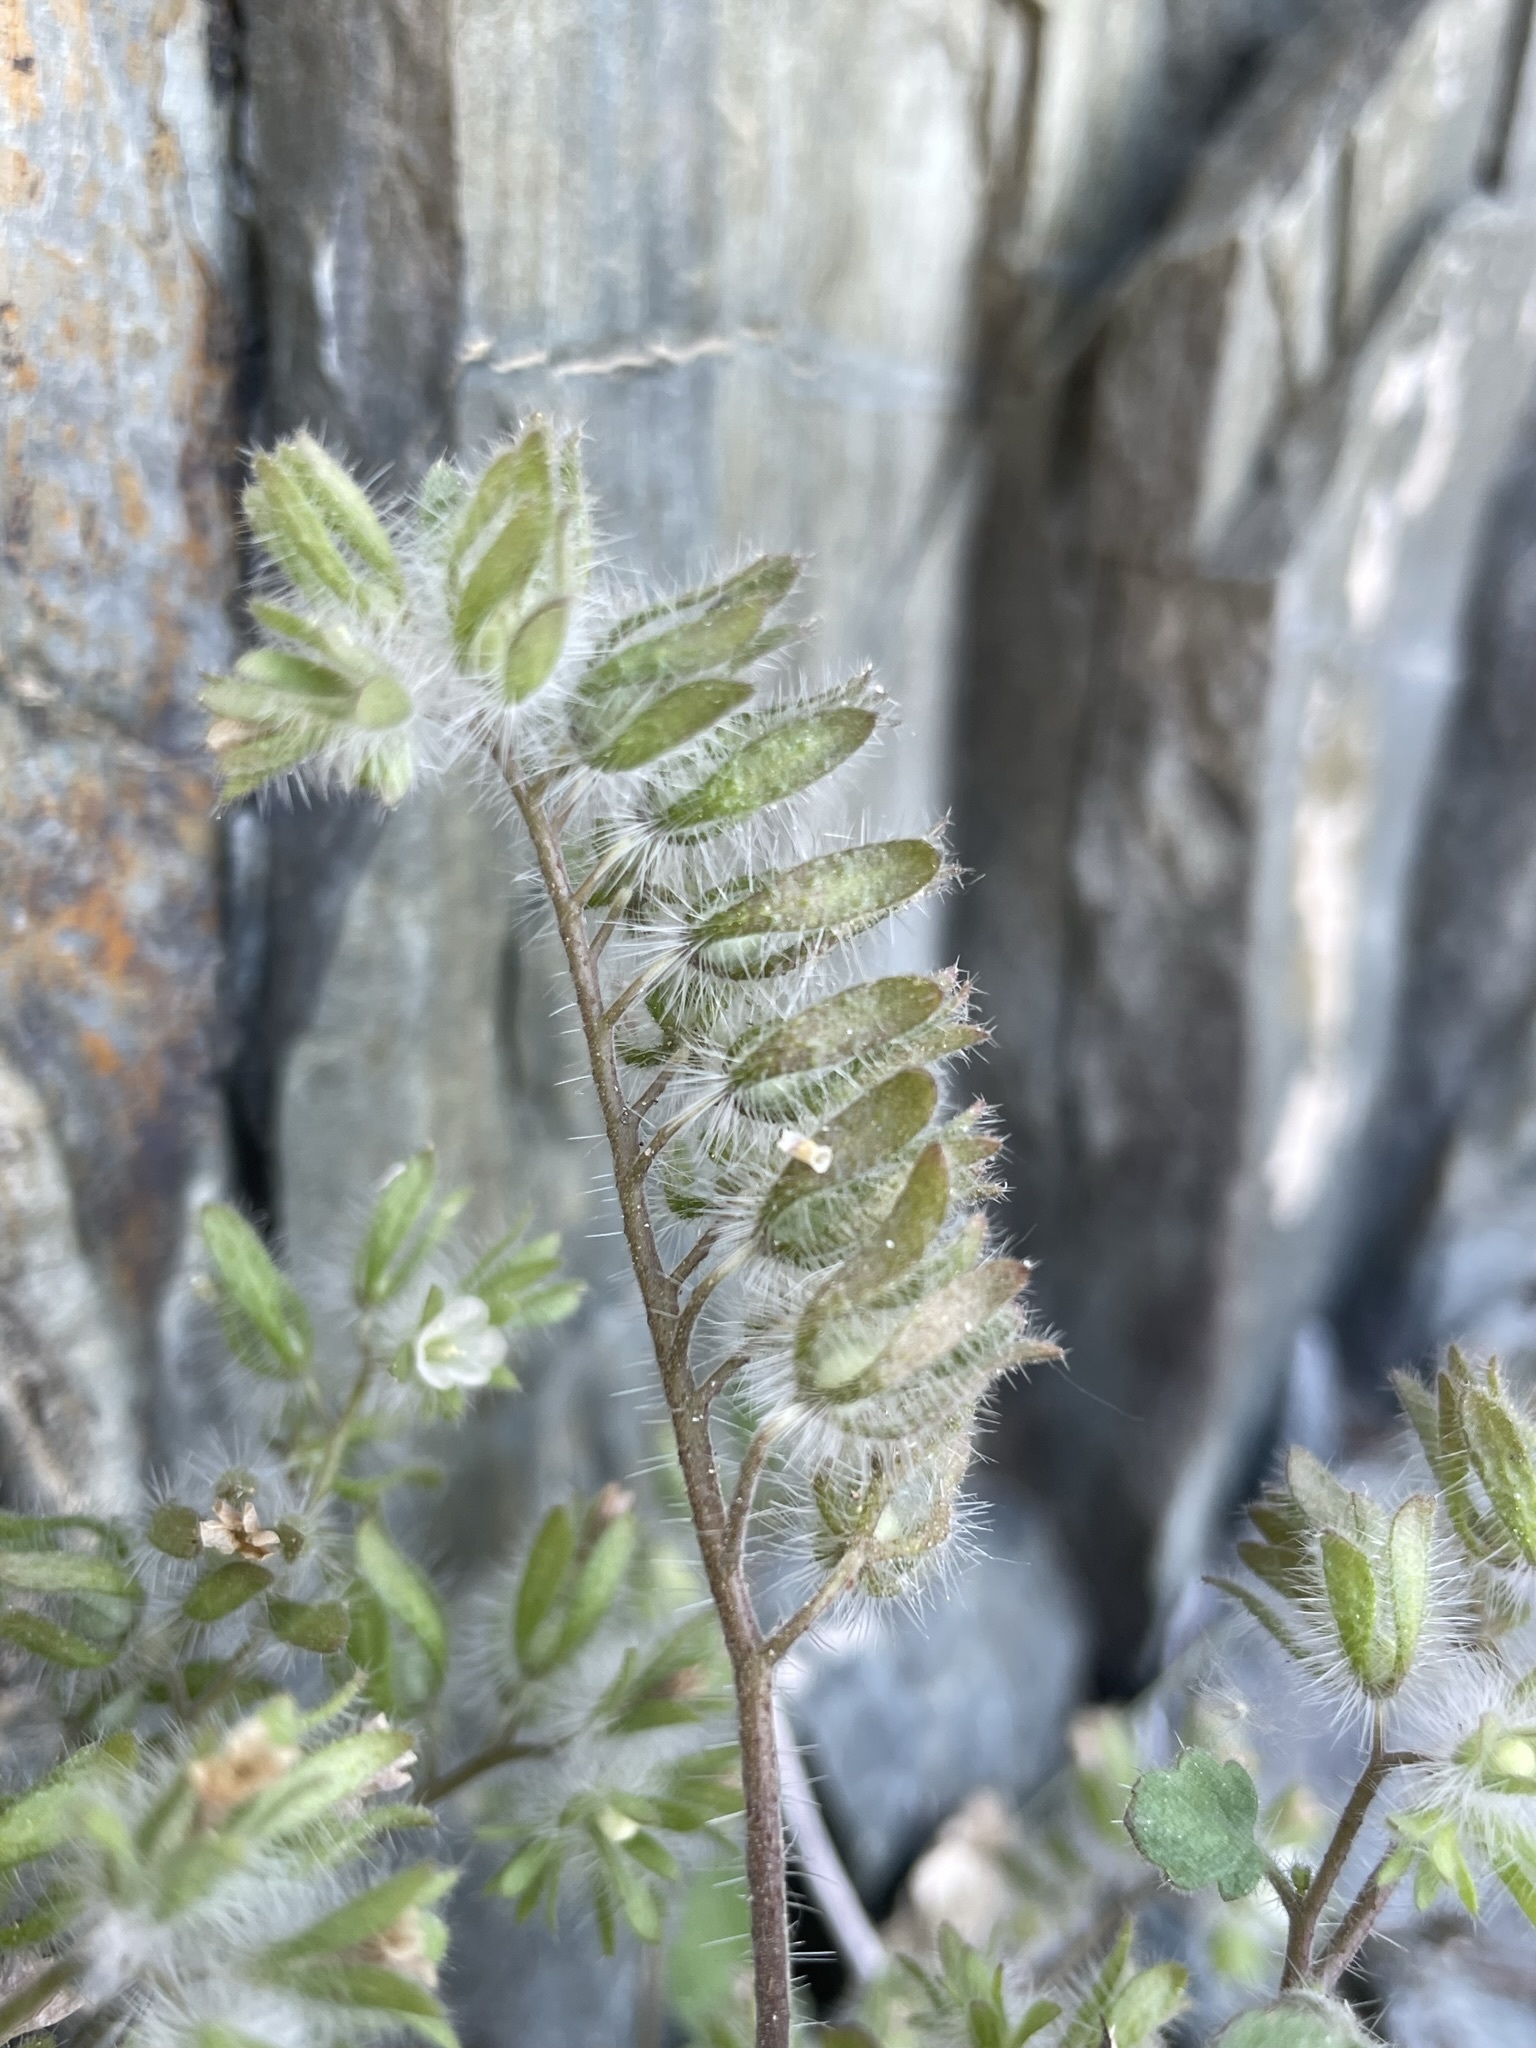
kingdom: Plantae
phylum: Tracheophyta
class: Magnoliopsida
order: Boraginales
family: Hydrophyllaceae
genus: Phacelia
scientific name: Phacelia cryptantha
